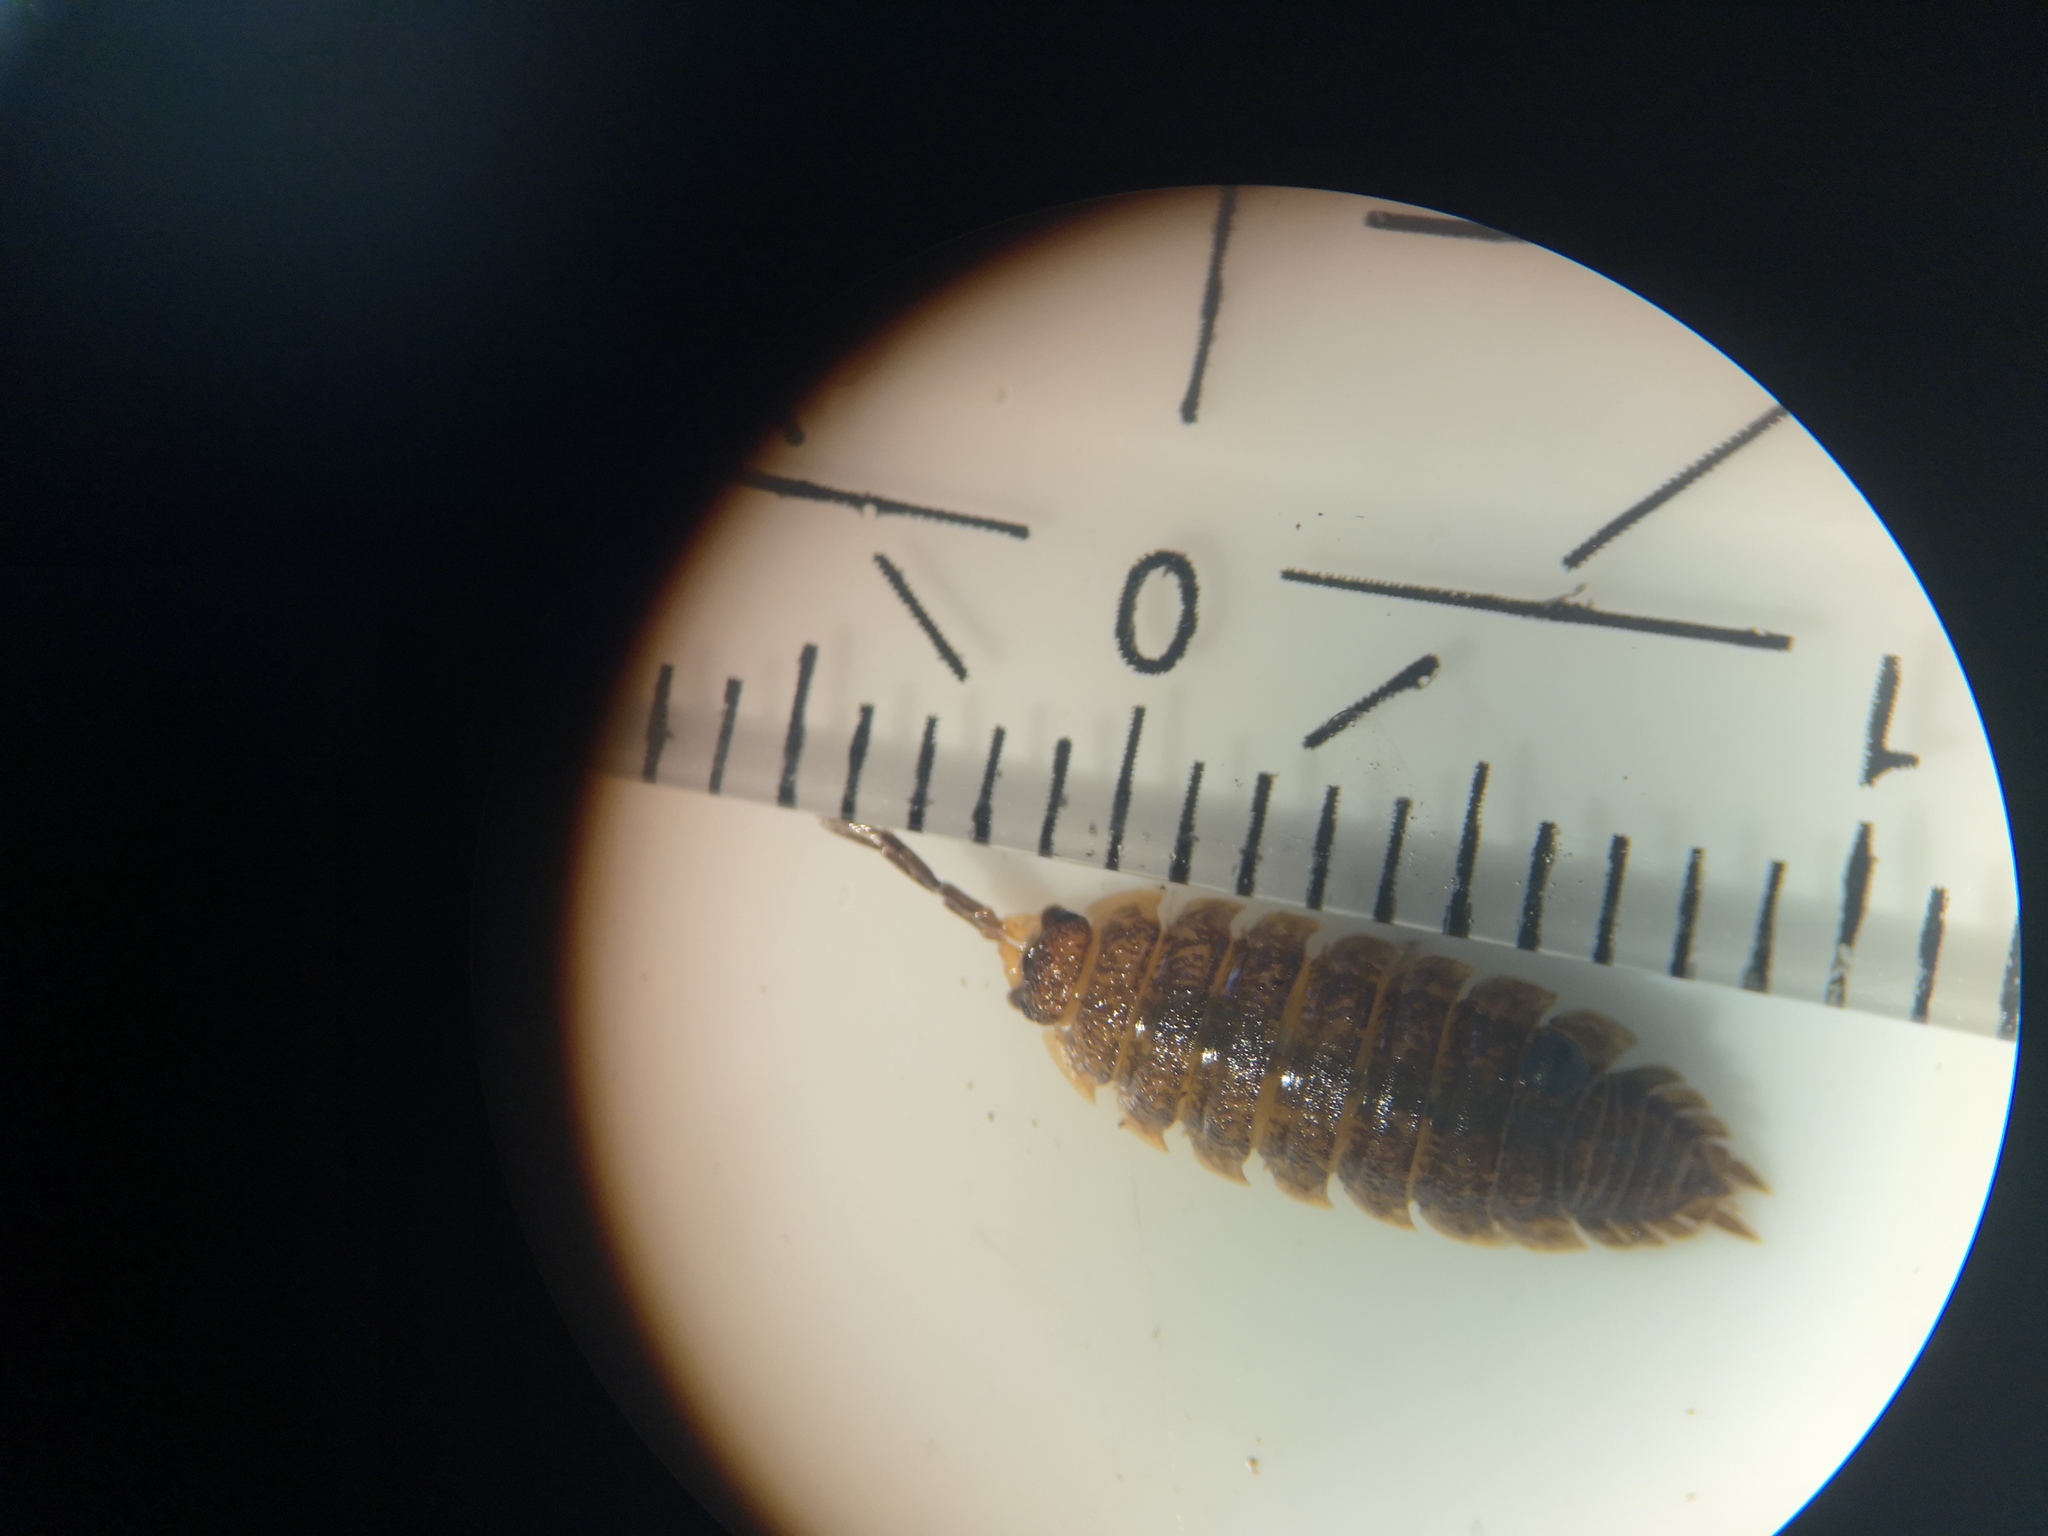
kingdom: Animalia
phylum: Arthropoda
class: Malacostraca
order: Isopoda
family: Porcellionidae
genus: Porcellio
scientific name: Porcellio scaber
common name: Common rough woodlouse
